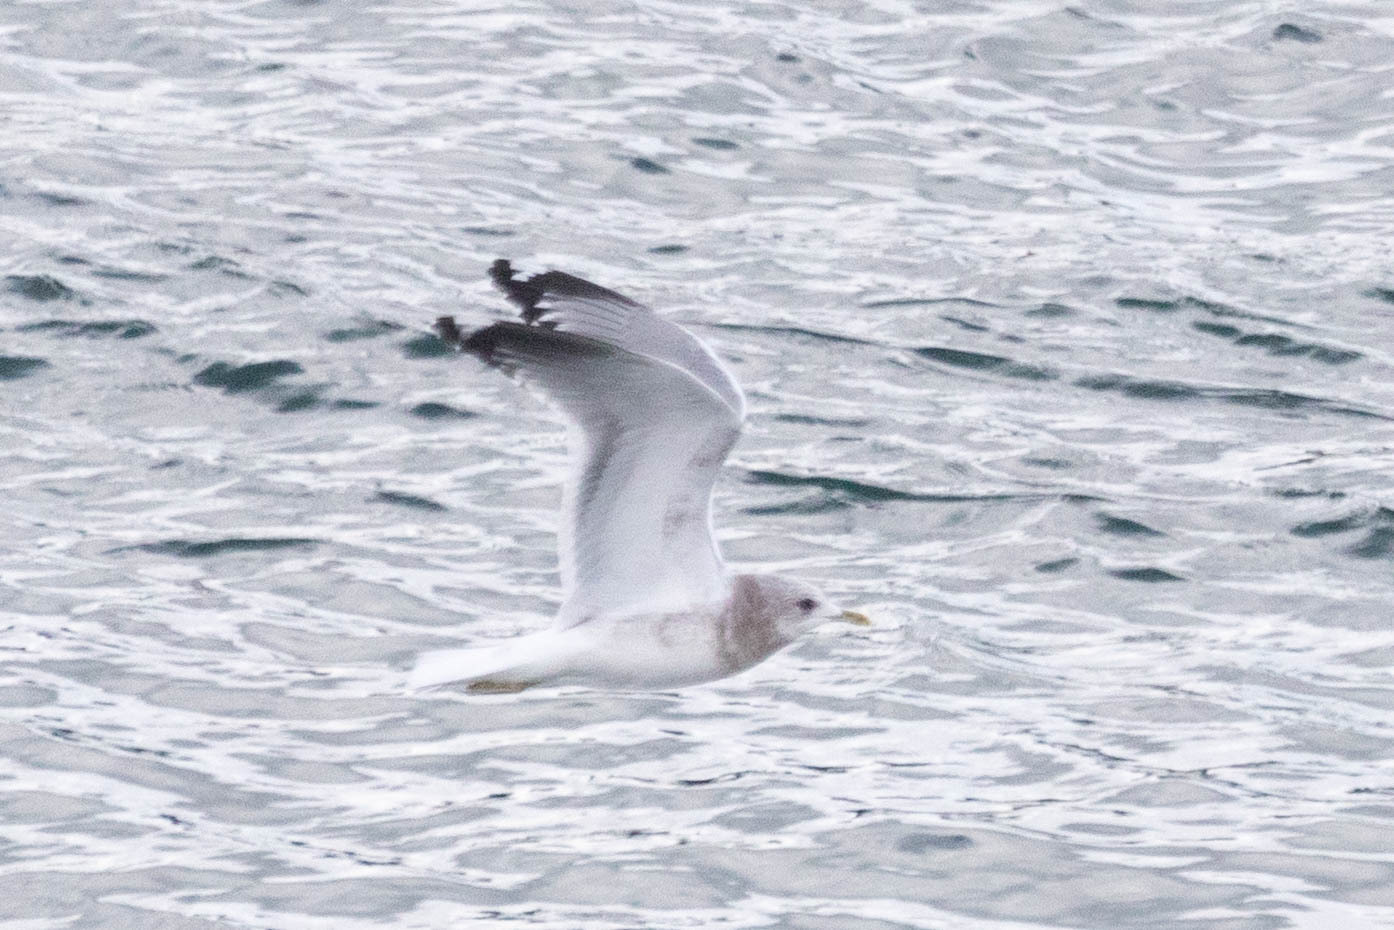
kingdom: Animalia
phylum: Chordata
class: Aves
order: Charadriiformes
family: Laridae
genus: Larus
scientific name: Larus brachyrhynchus
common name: Short-billed gull
